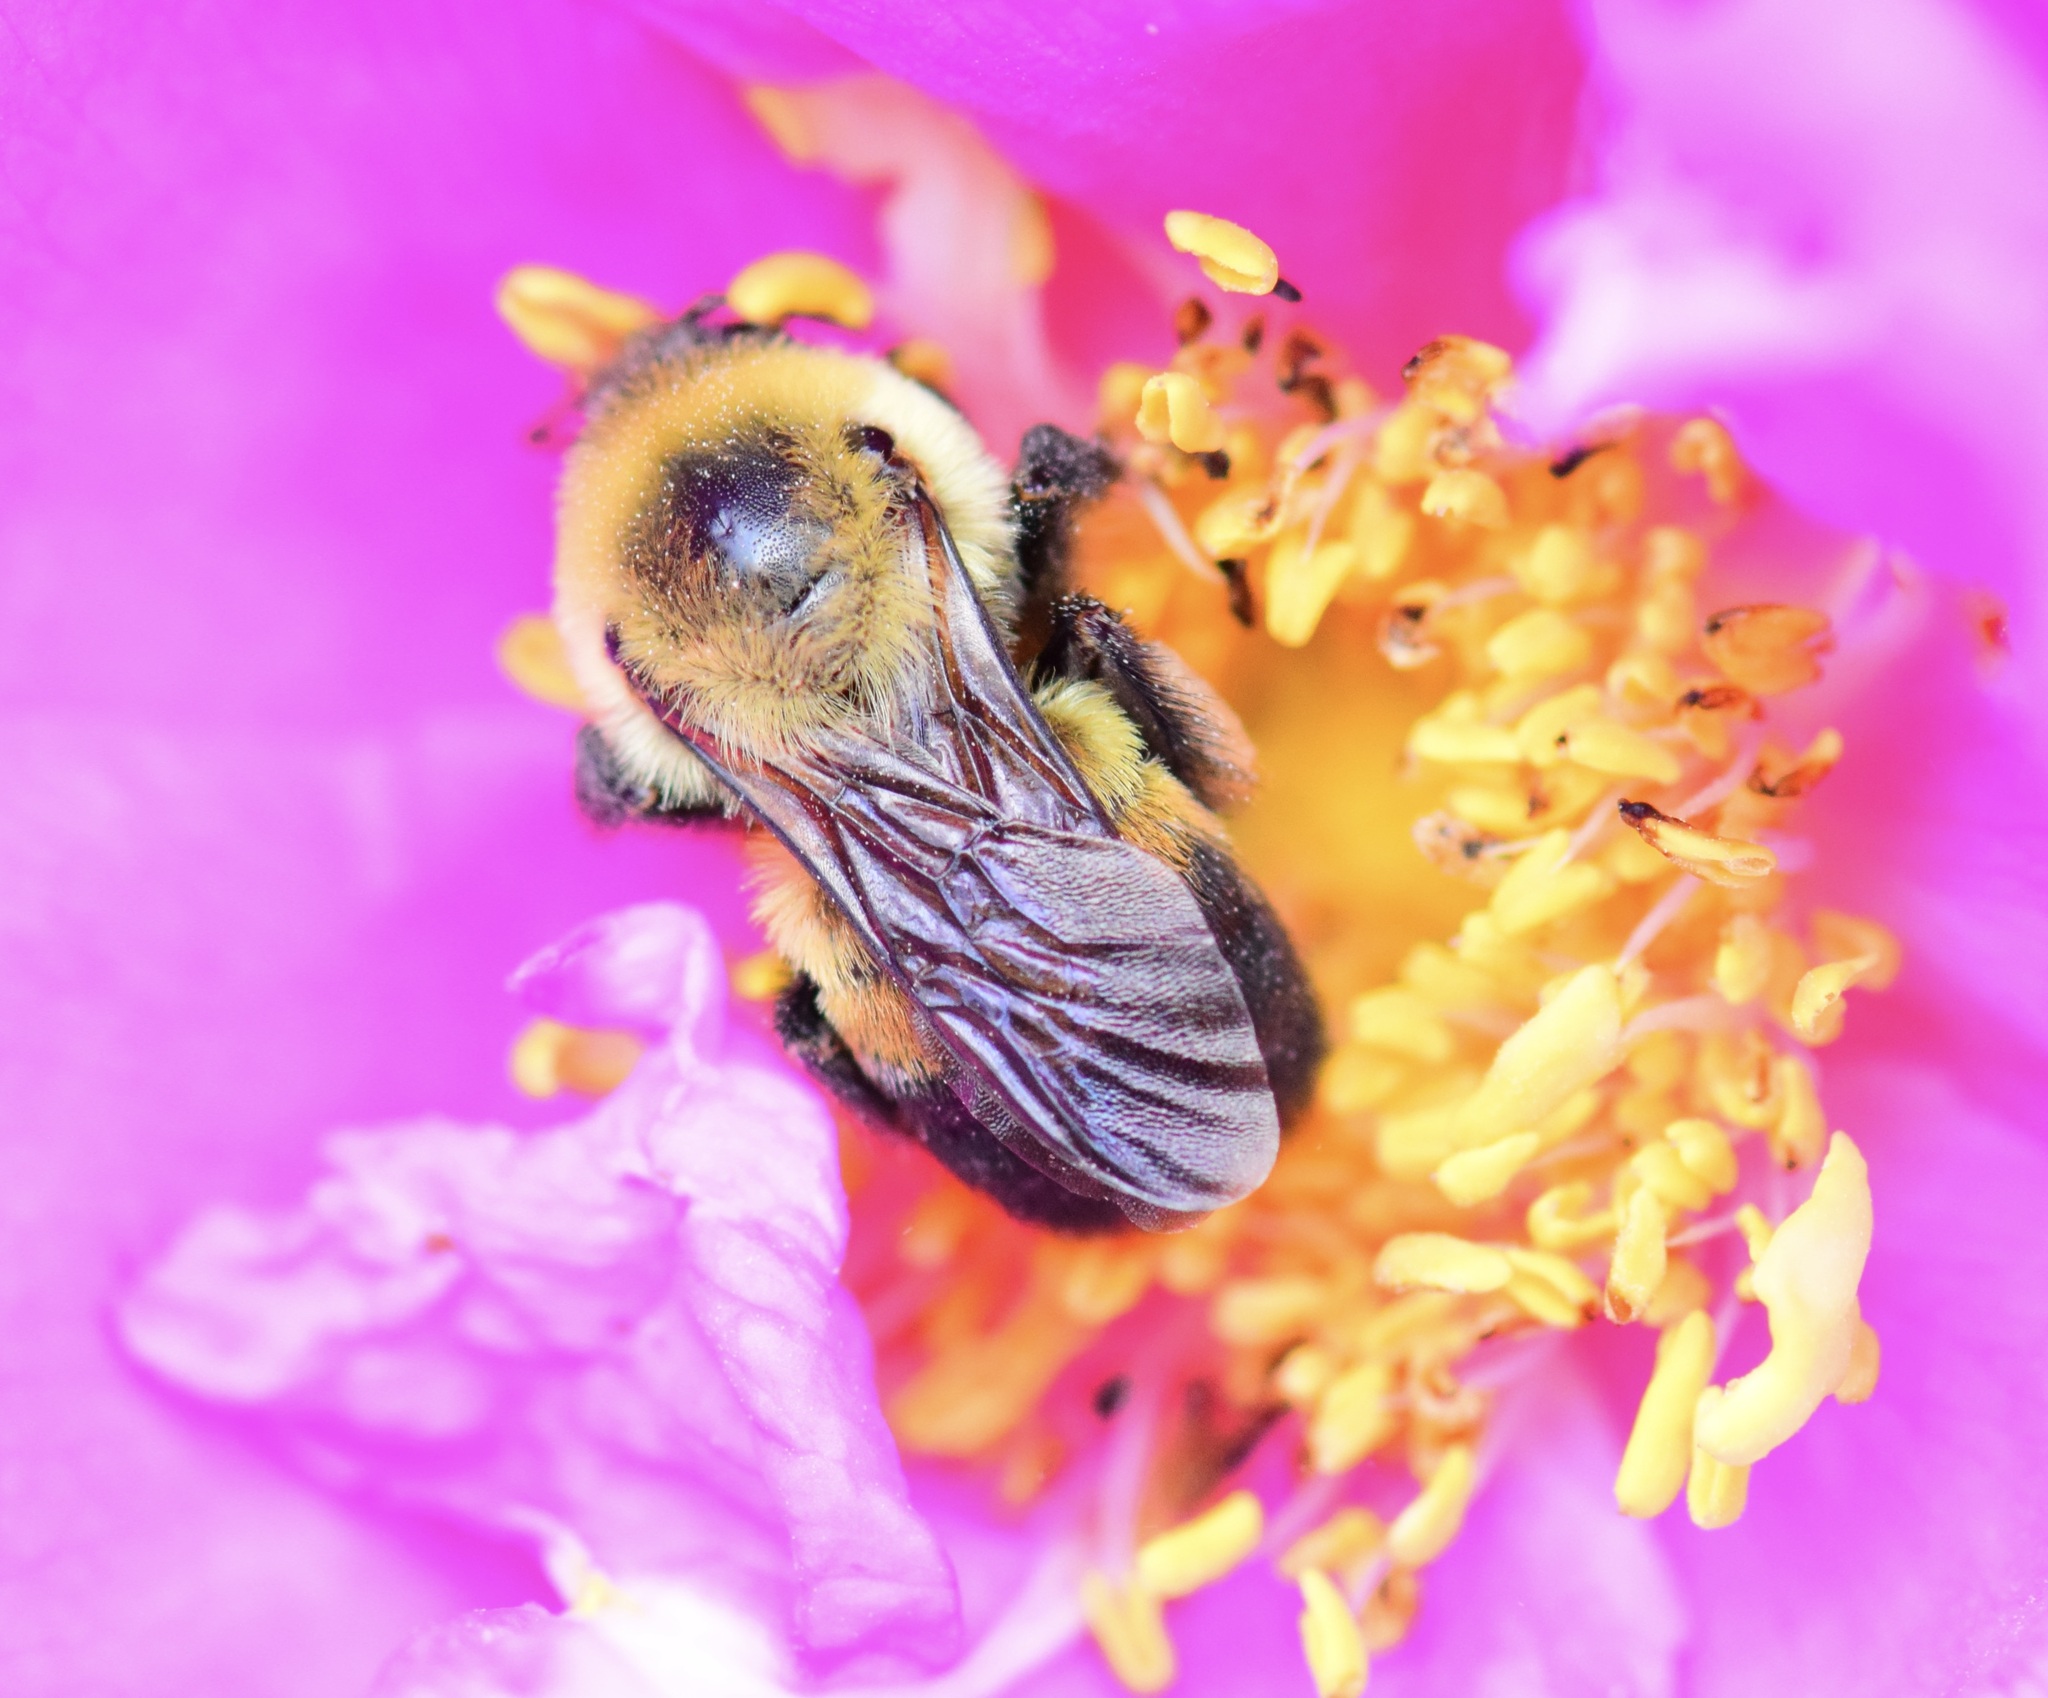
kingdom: Animalia
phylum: Arthropoda
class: Insecta
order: Hymenoptera
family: Apidae
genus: Bombus
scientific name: Bombus griseocollis
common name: Brown-belted bumble bee
